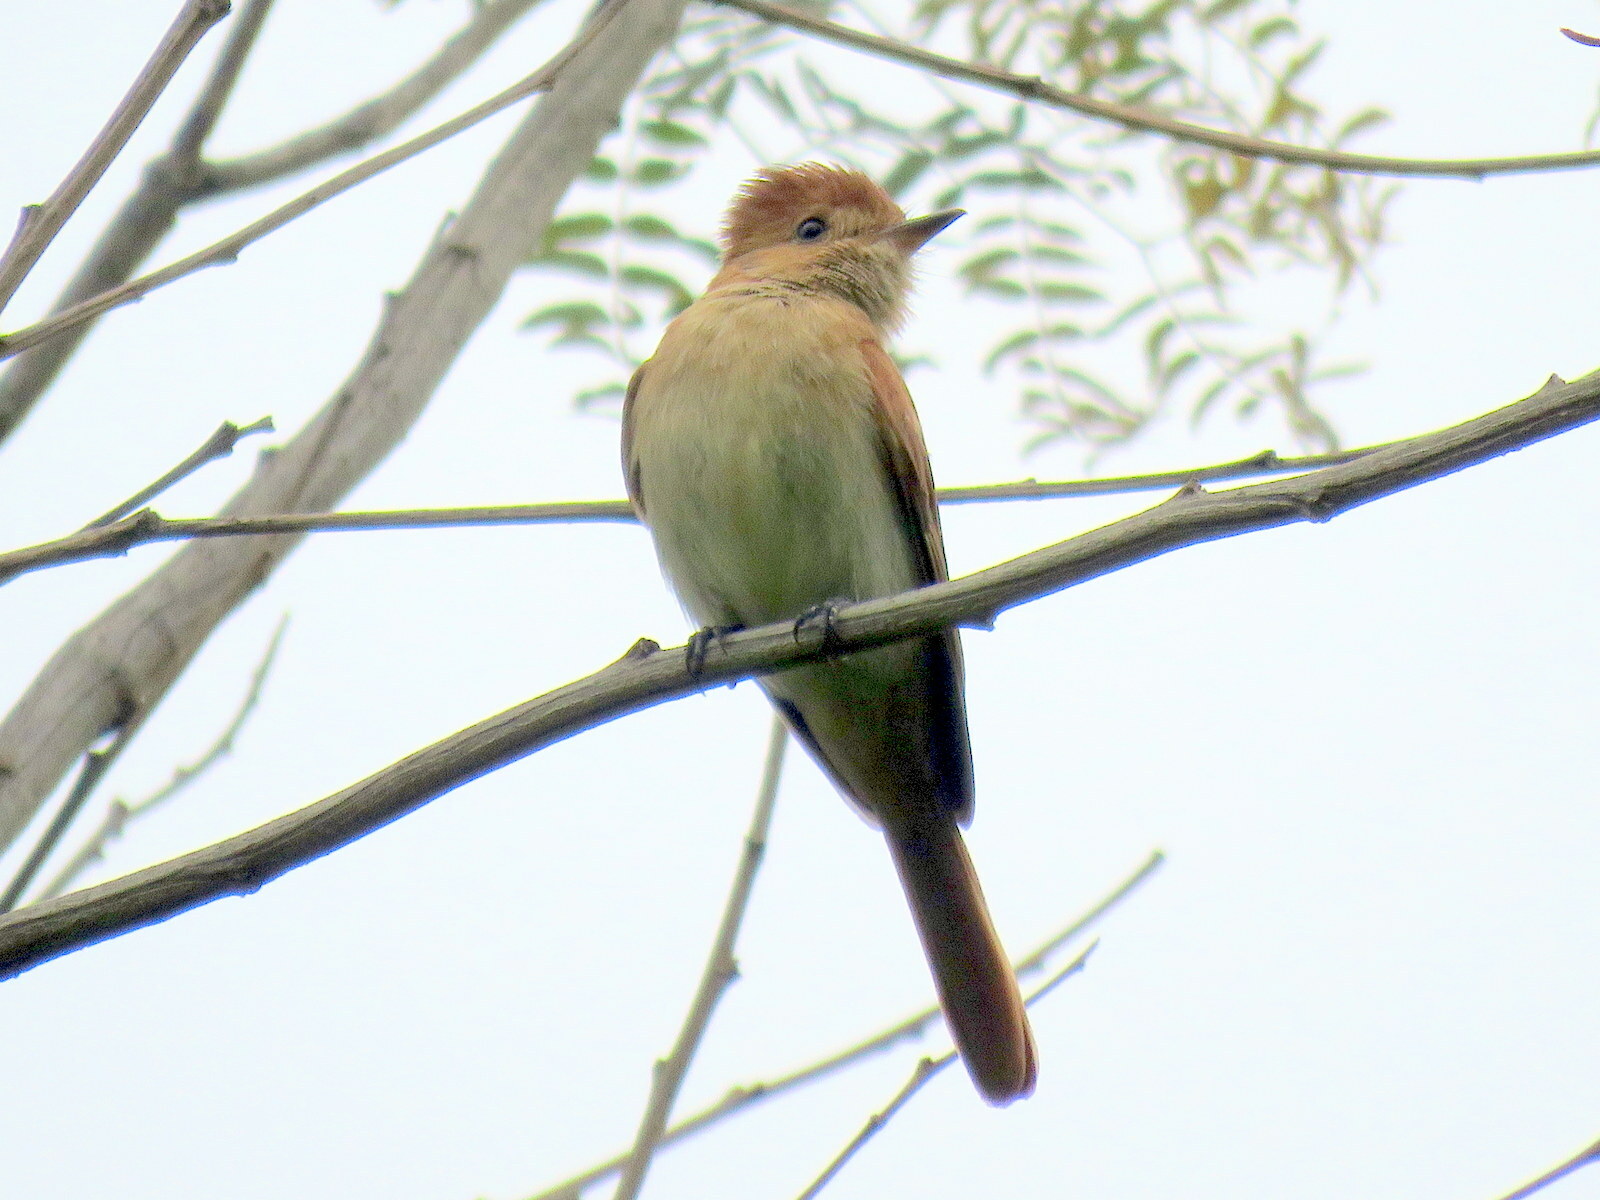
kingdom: Animalia
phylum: Chordata
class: Aves
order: Passeriformes
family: Tyrannidae
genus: Casiornis
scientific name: Casiornis rufus
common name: Rufous casiornis
